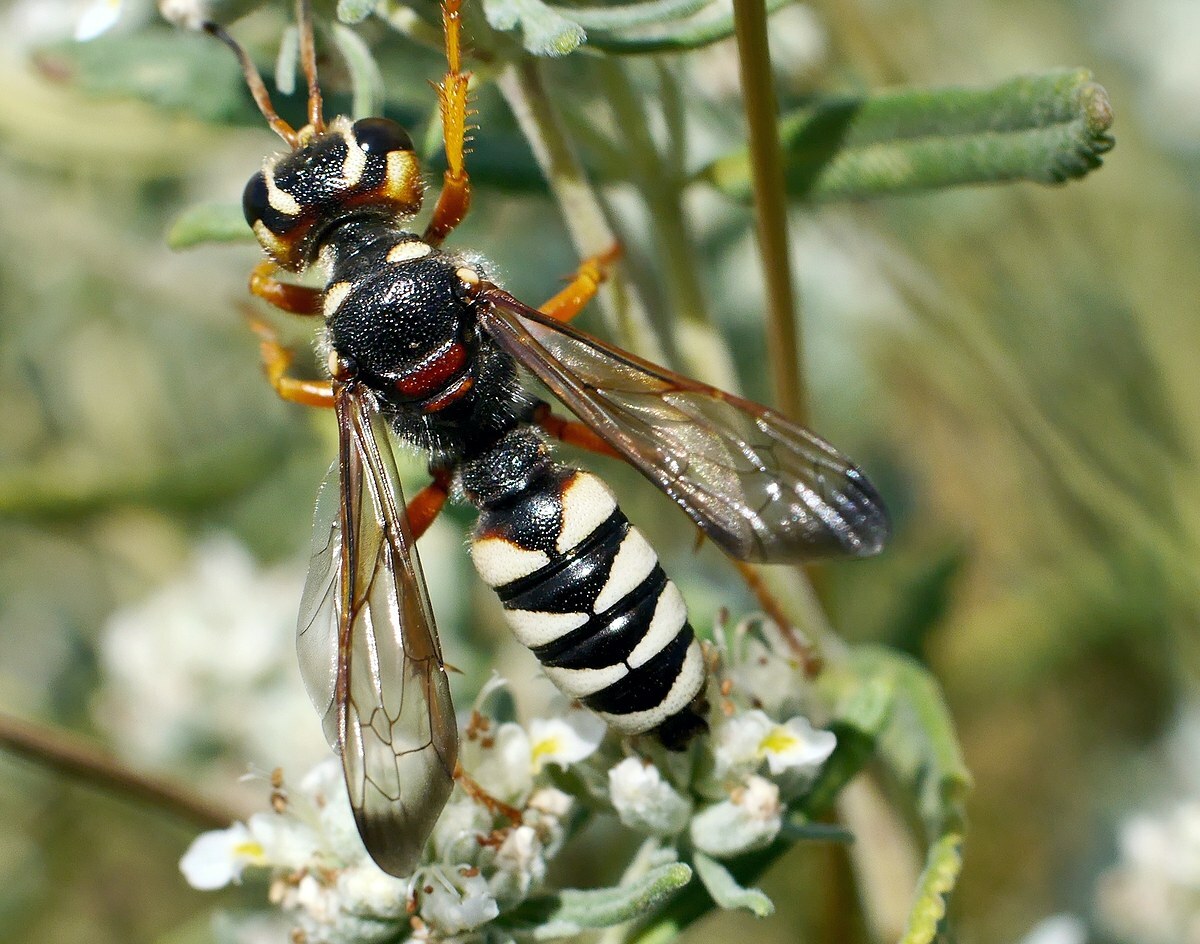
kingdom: Animalia
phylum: Arthropoda
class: Insecta
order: Hymenoptera
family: Crabronidae
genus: Cerceris
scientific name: Cerceris tuberculata
